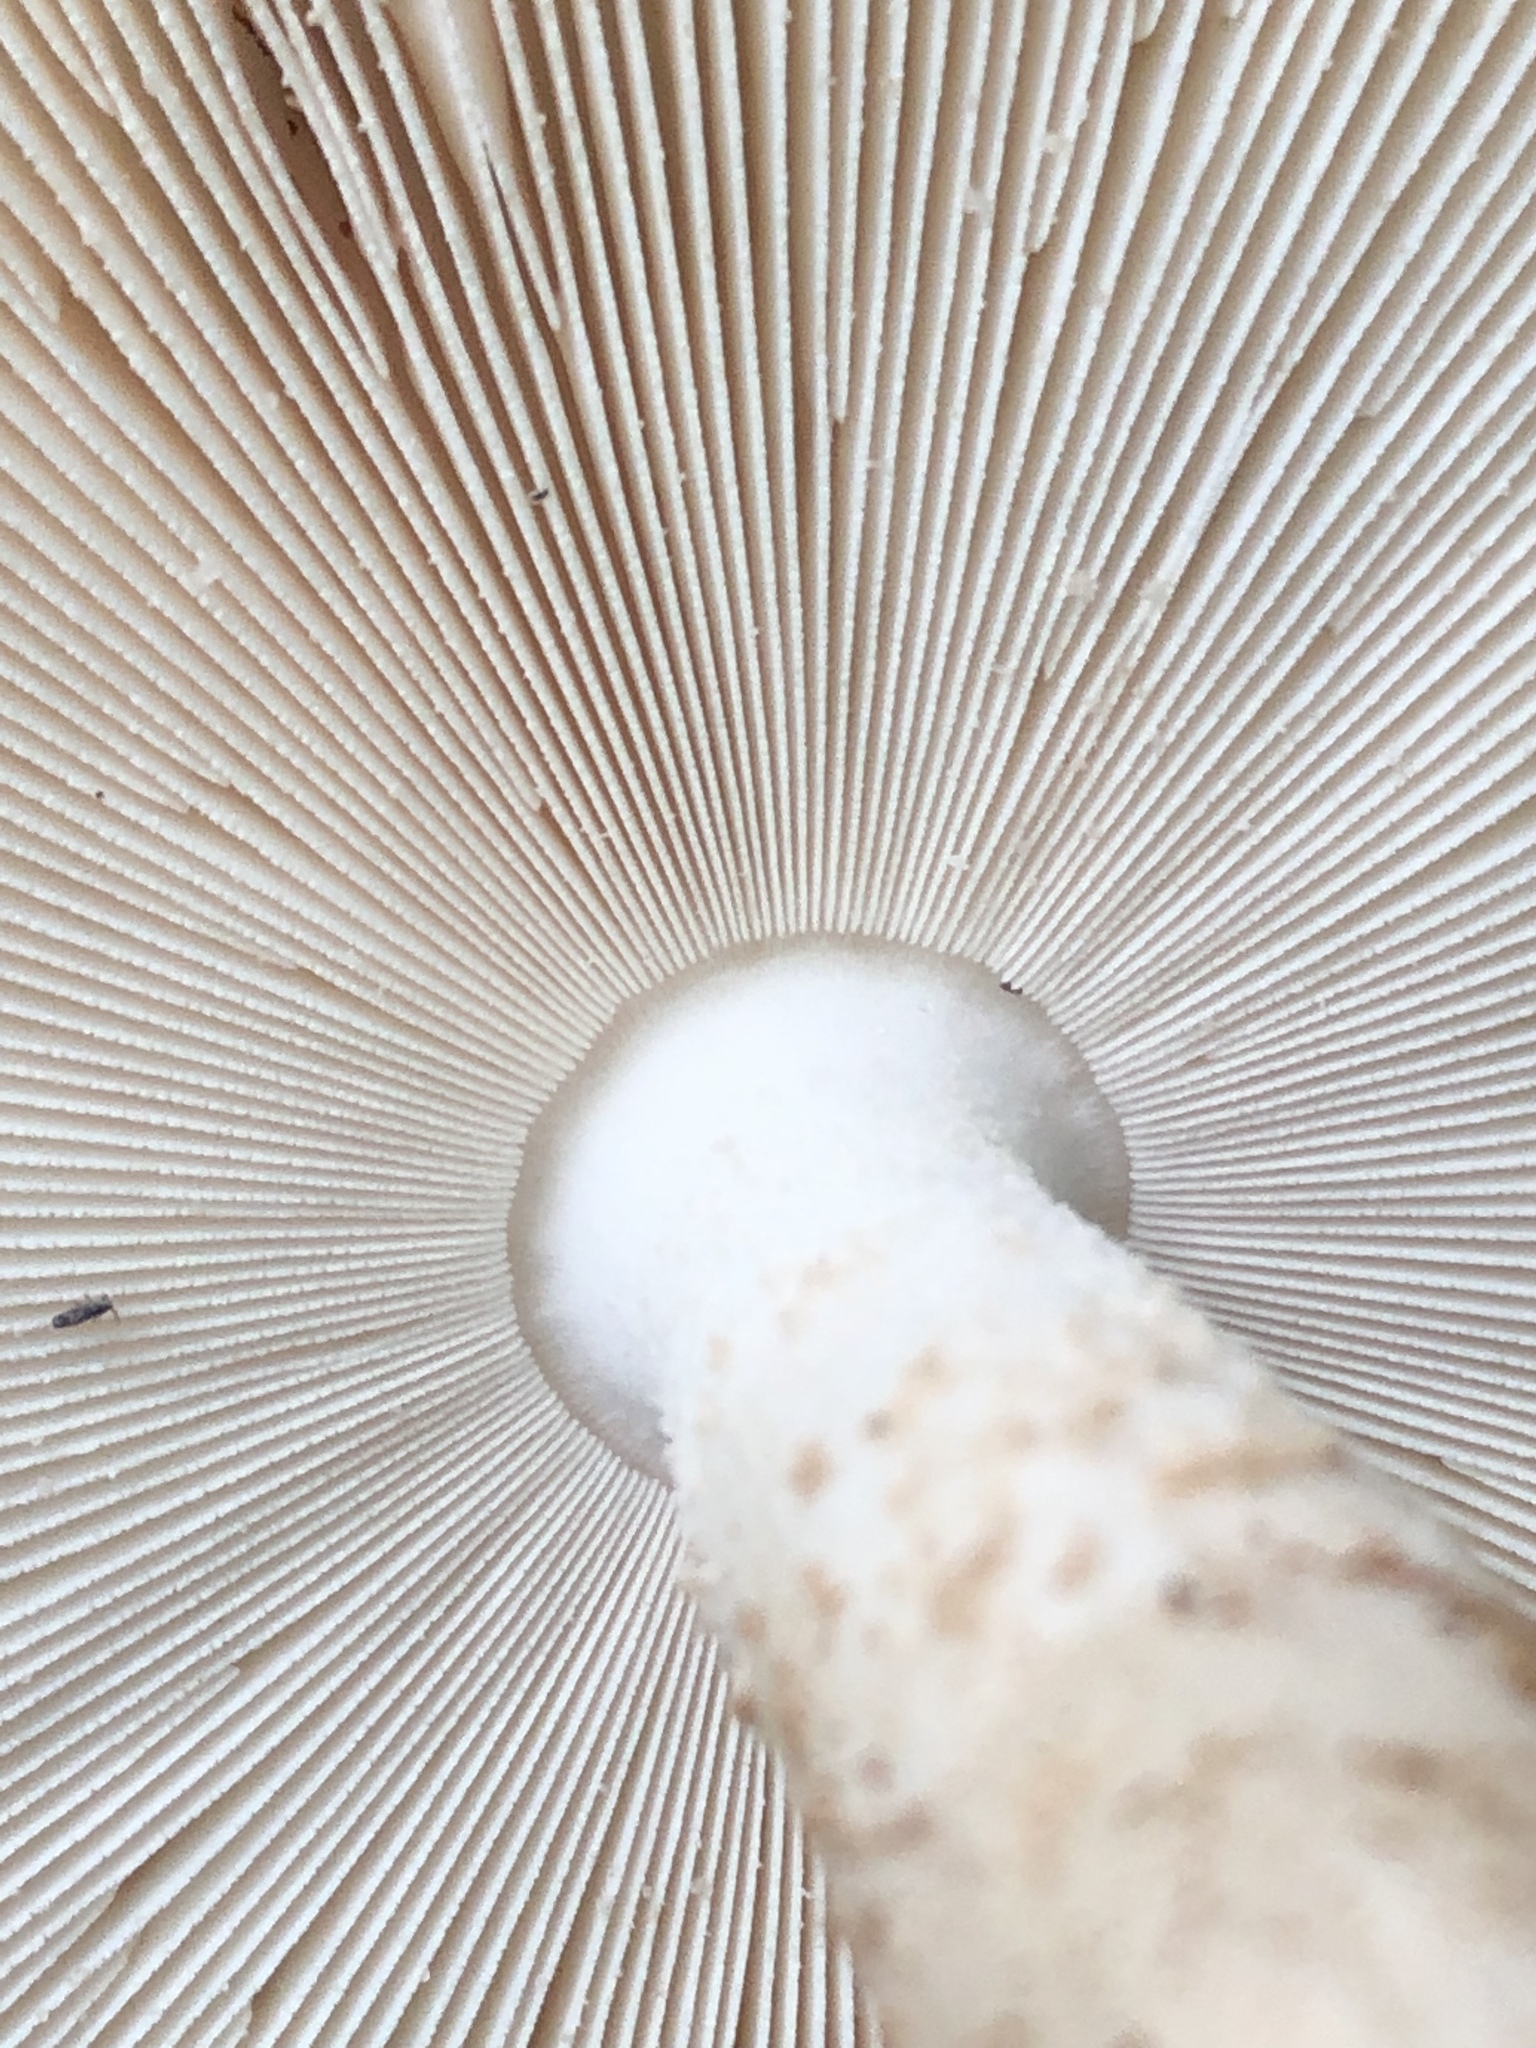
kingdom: Fungi
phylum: Basidiomycota
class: Agaricomycetes
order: Agaricales
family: Amanitaceae
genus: Amanita
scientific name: Amanita volvata
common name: American amidella
